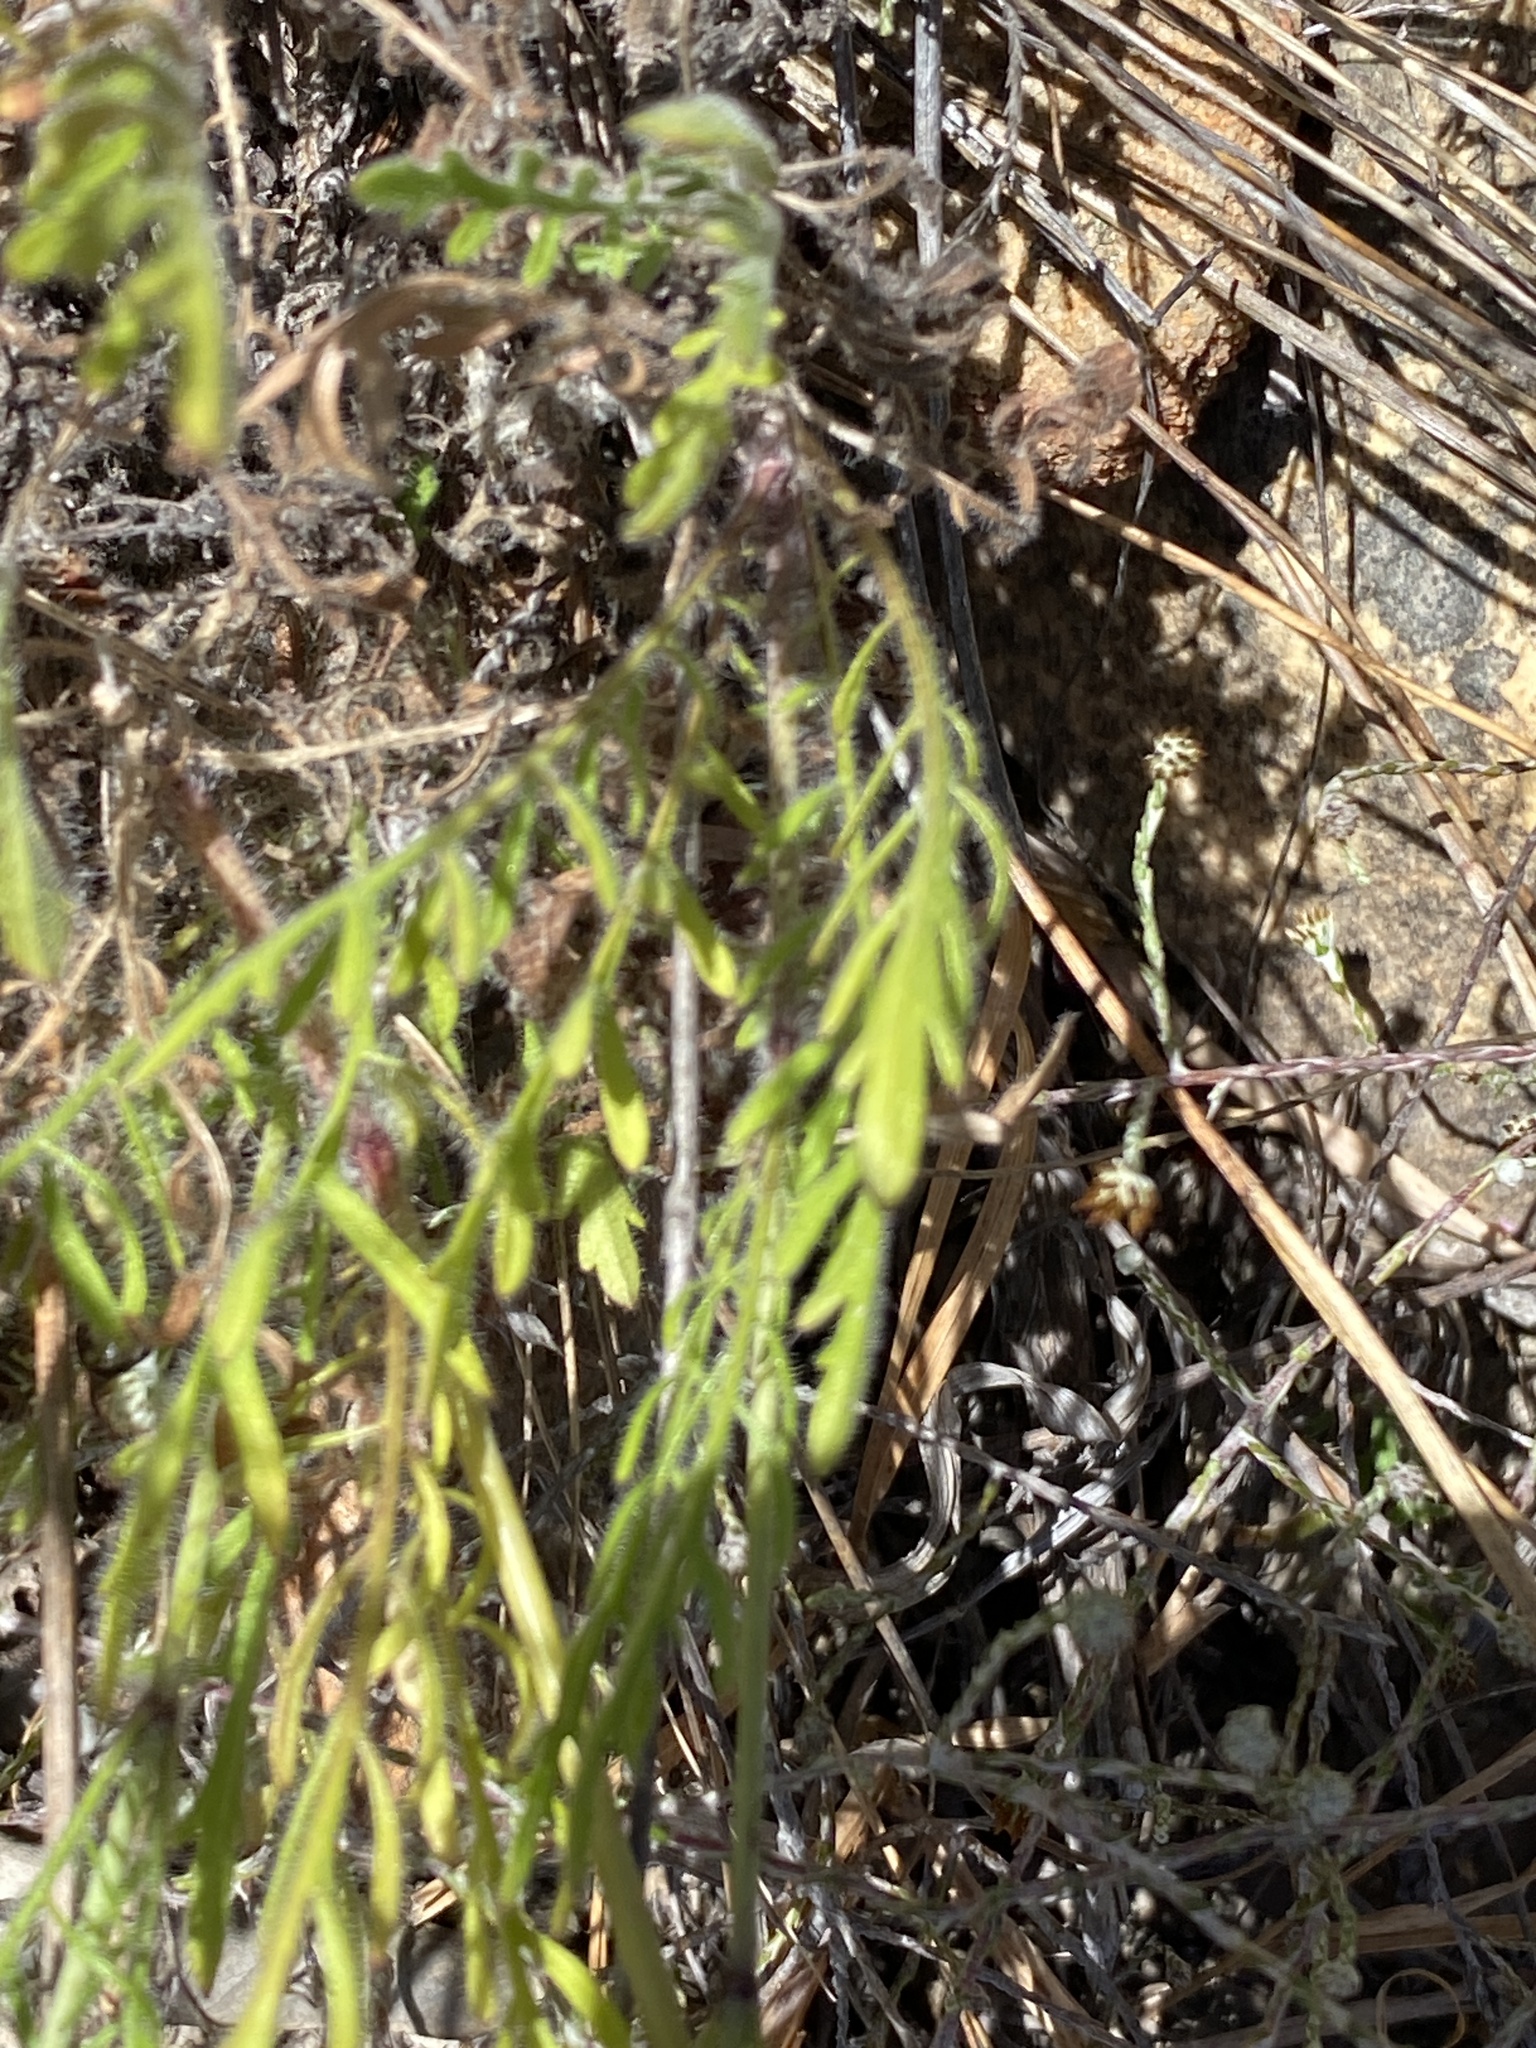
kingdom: Plantae
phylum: Tracheophyta
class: Magnoliopsida
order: Dipsacales
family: Caprifoliaceae
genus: Scabiosa
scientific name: Scabiosa columbaria
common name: Small scabious
